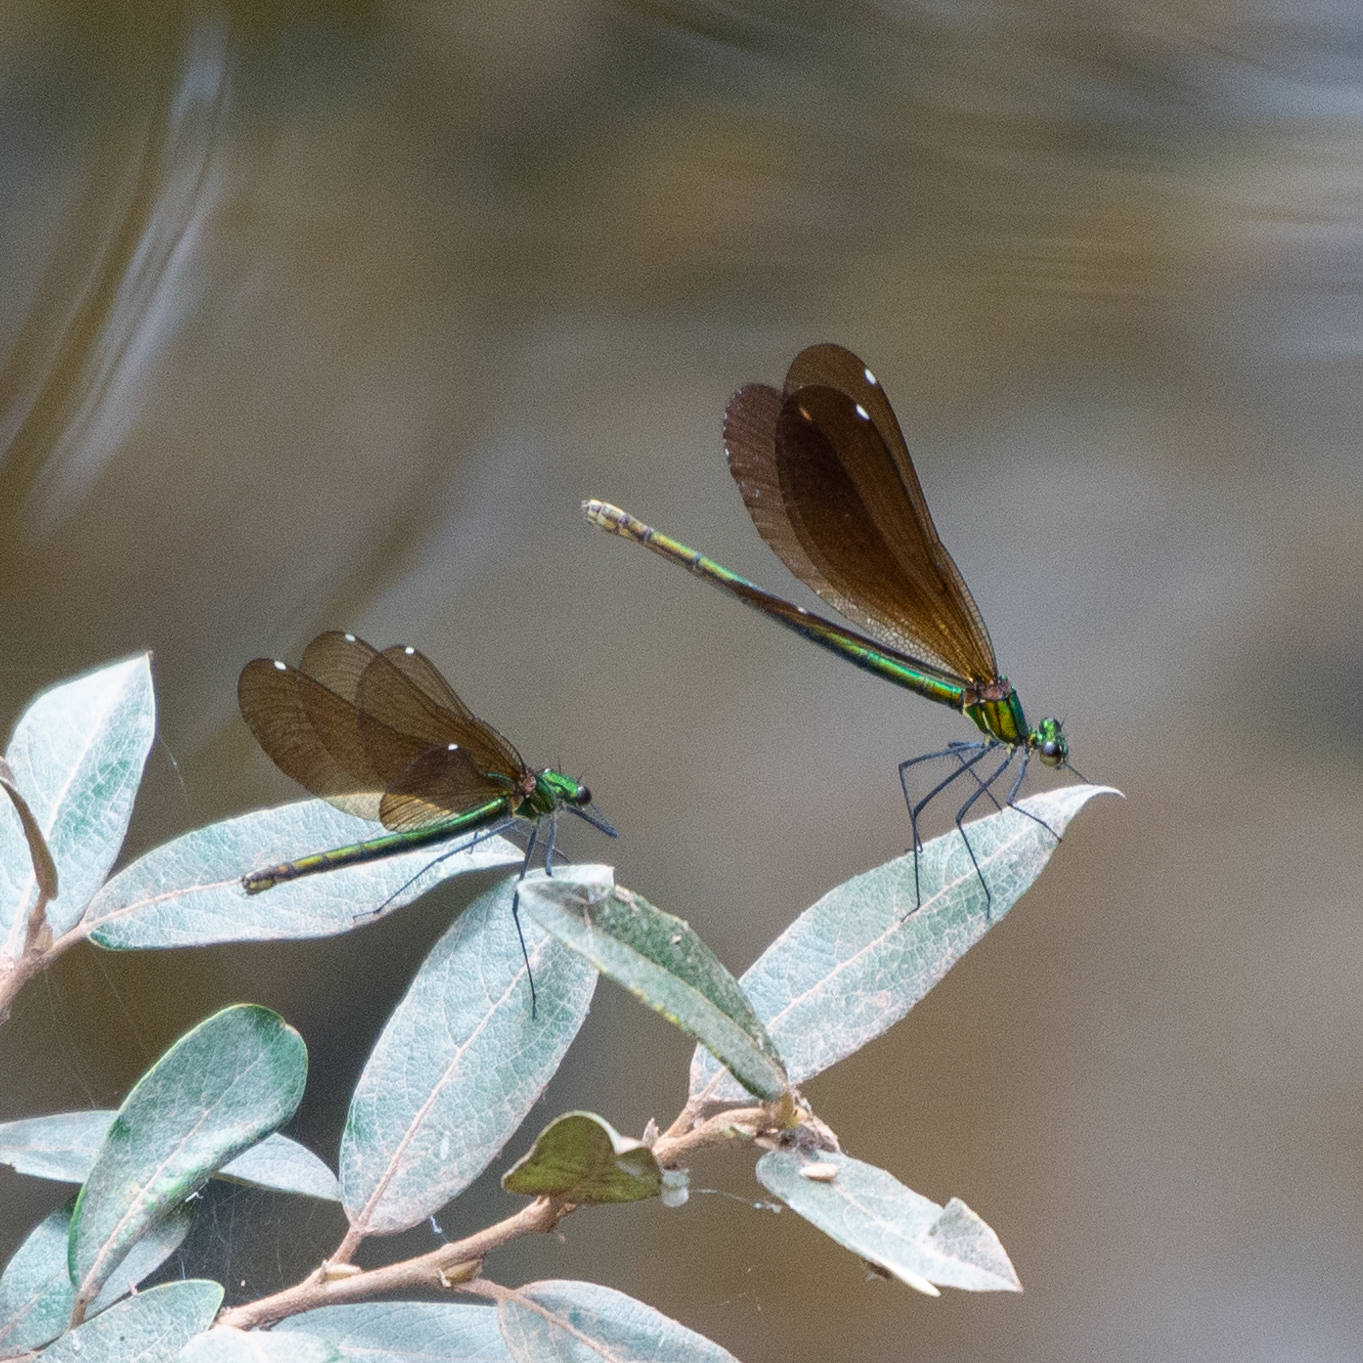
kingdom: Animalia
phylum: Arthropoda
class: Insecta
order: Odonata
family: Calopterygidae
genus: Calopteryx
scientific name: Calopteryx virgo
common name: Beautiful demoiselle
